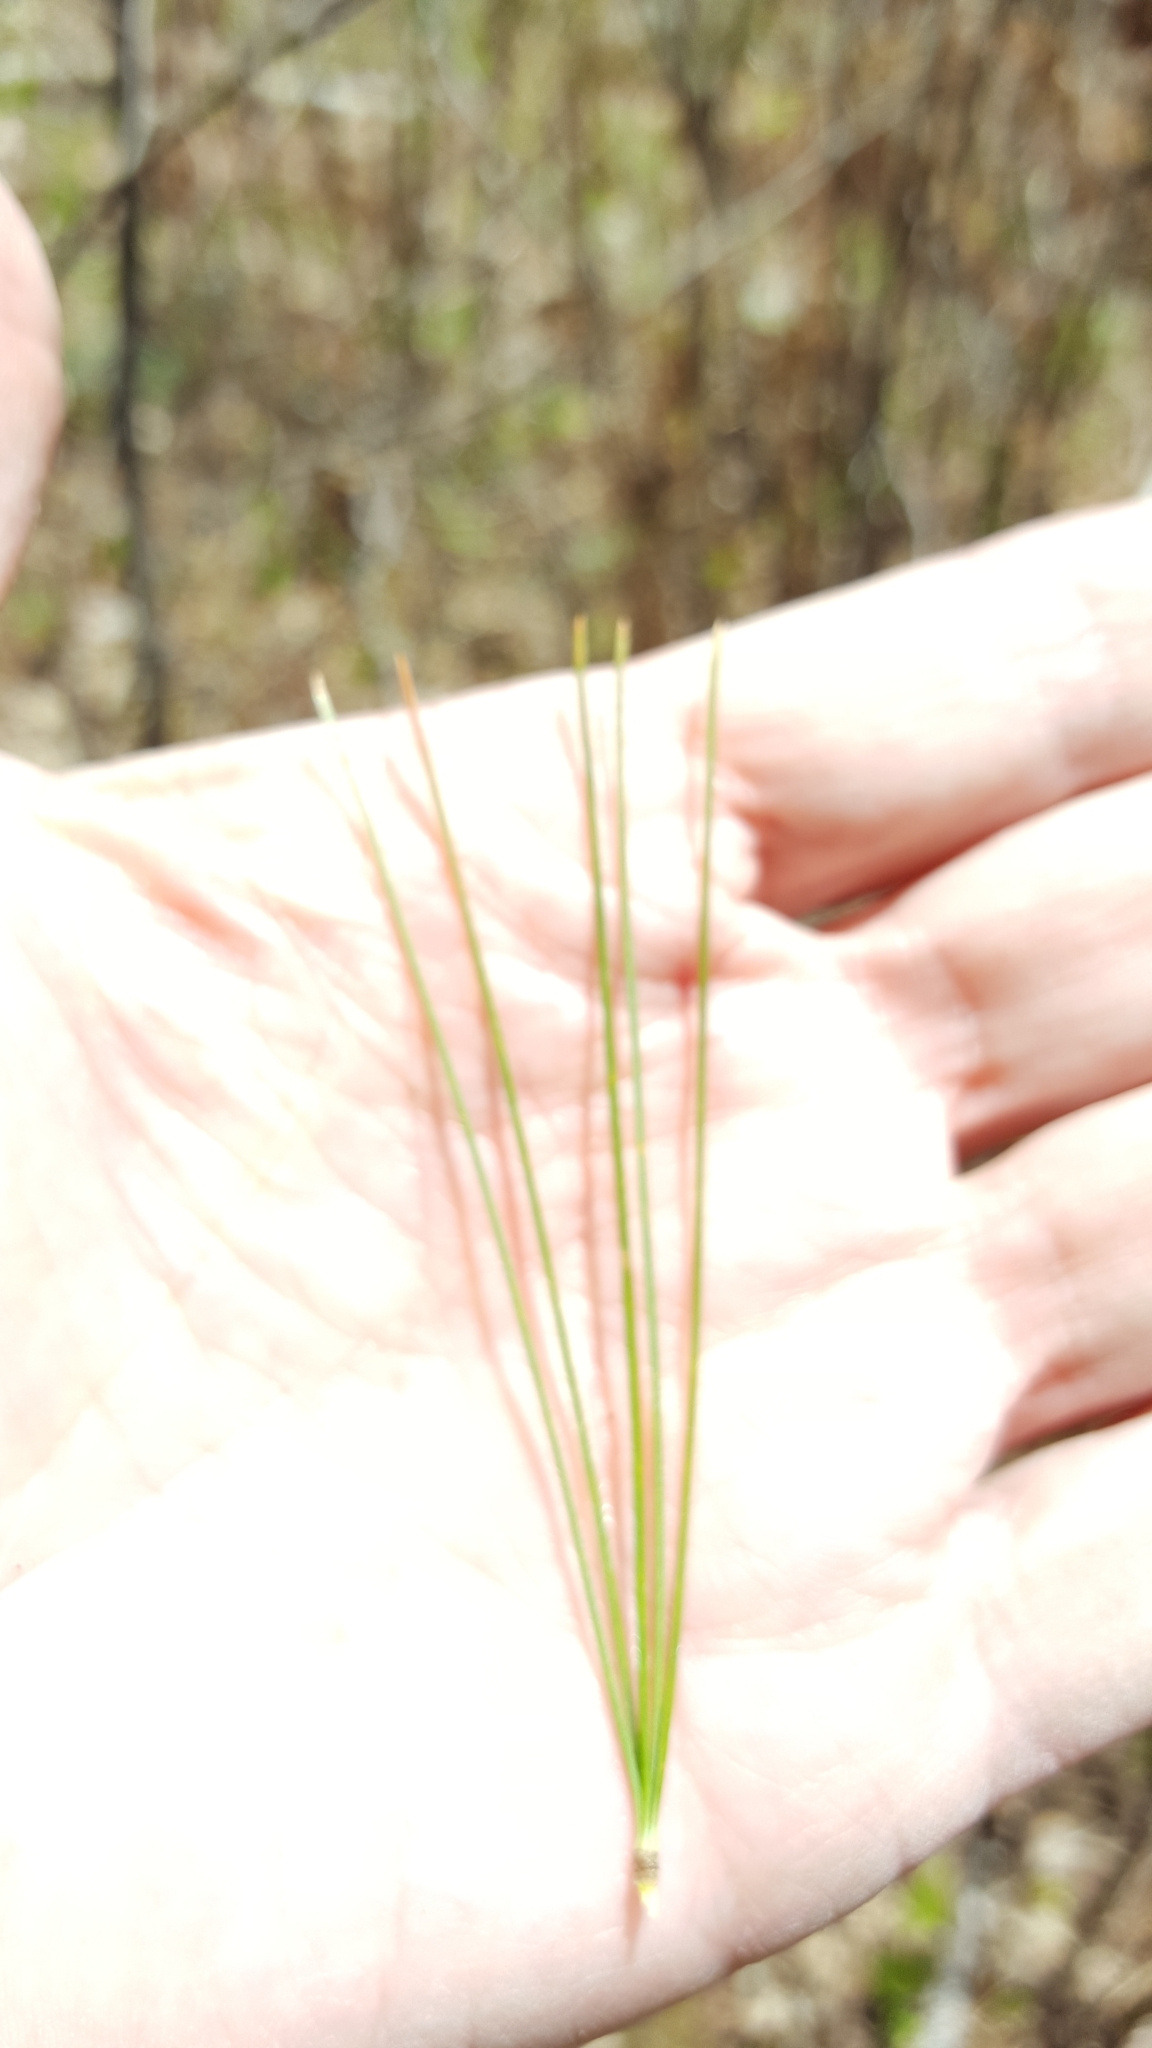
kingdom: Plantae
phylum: Tracheophyta
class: Pinopsida
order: Pinales
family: Pinaceae
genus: Pinus
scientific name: Pinus strobus
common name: Weymouth pine
